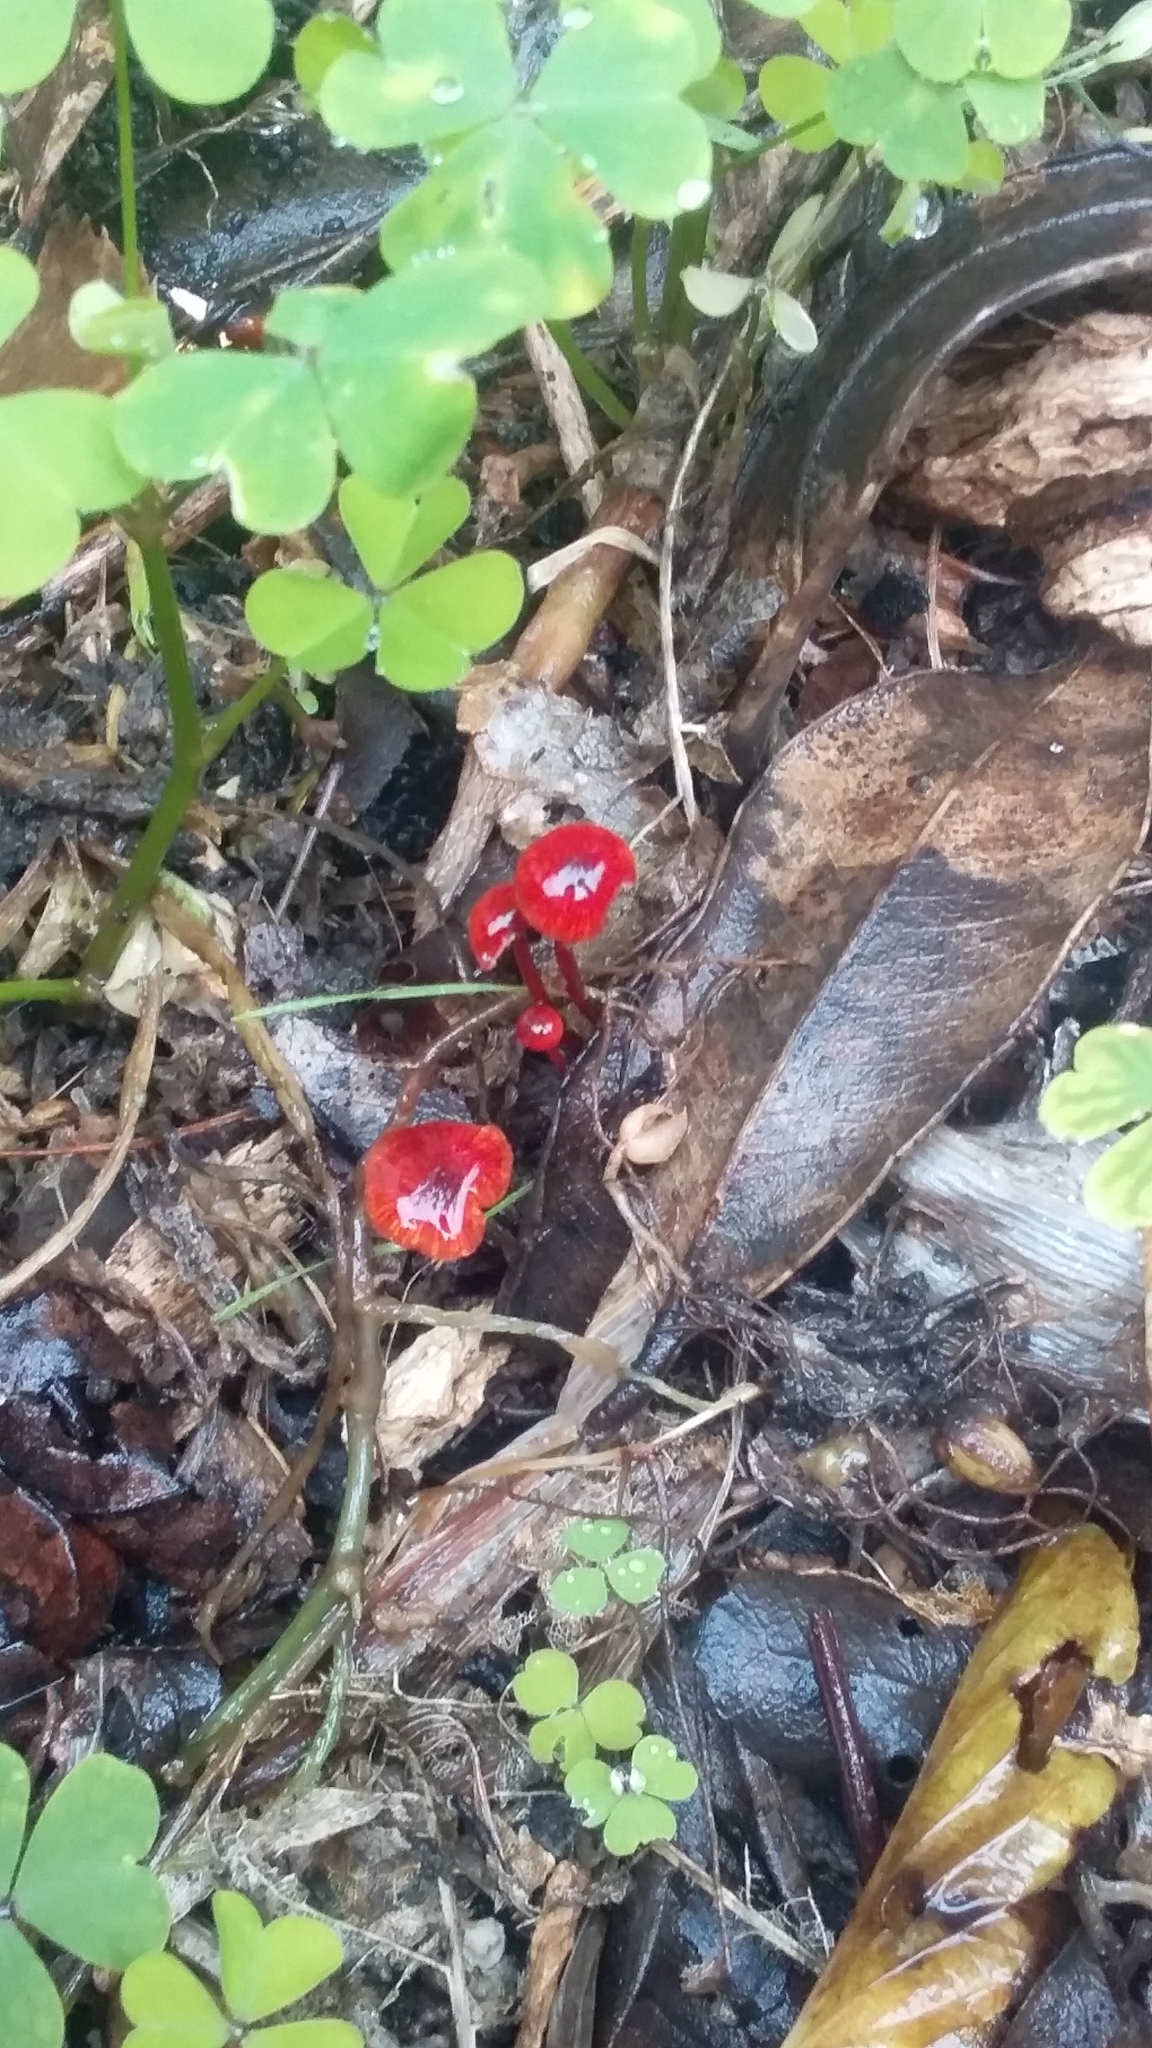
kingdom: Fungi
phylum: Basidiomycota
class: Agaricomycetes
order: Agaricales
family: Mycenaceae
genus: Cruentomycena
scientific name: Cruentomycena viscidocruenta
